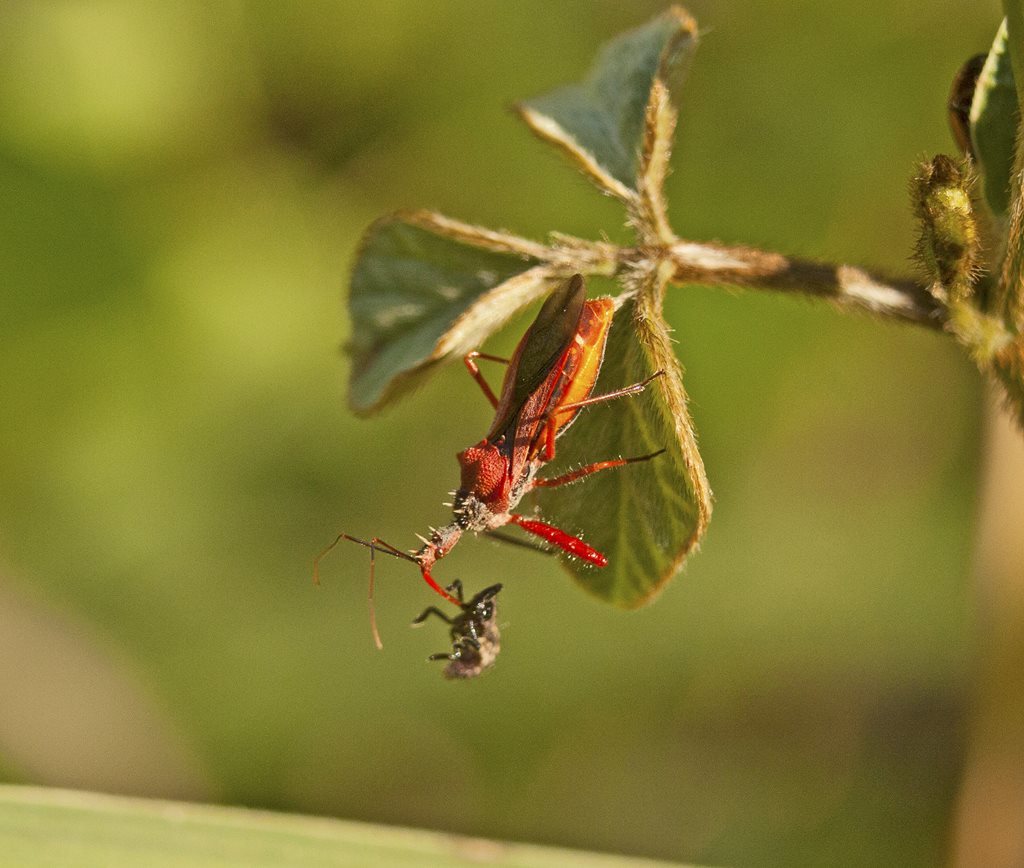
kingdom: Animalia
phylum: Arthropoda
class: Insecta
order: Hemiptera
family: Reduviidae
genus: Scipinia
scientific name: Scipinia arenacea
